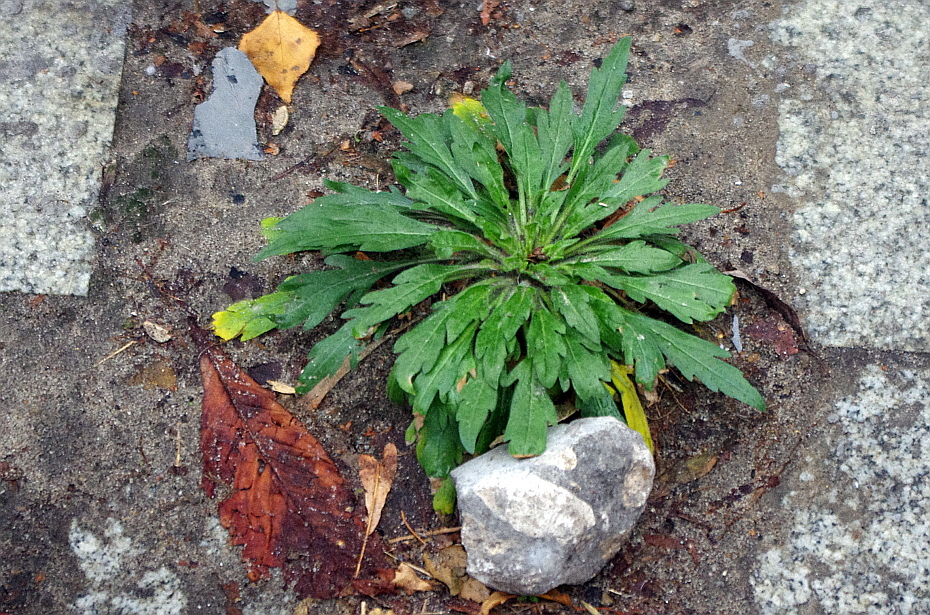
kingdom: Plantae
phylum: Tracheophyta
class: Magnoliopsida
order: Asterales
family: Asteraceae
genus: Erigeron
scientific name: Erigeron canadensis
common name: Canadian fleabane
